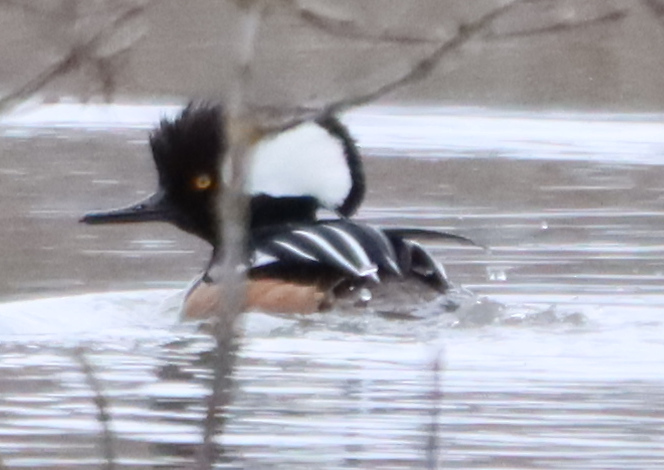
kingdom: Animalia
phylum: Chordata
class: Aves
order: Anseriformes
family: Anatidae
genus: Lophodytes
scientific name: Lophodytes cucullatus
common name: Hooded merganser
